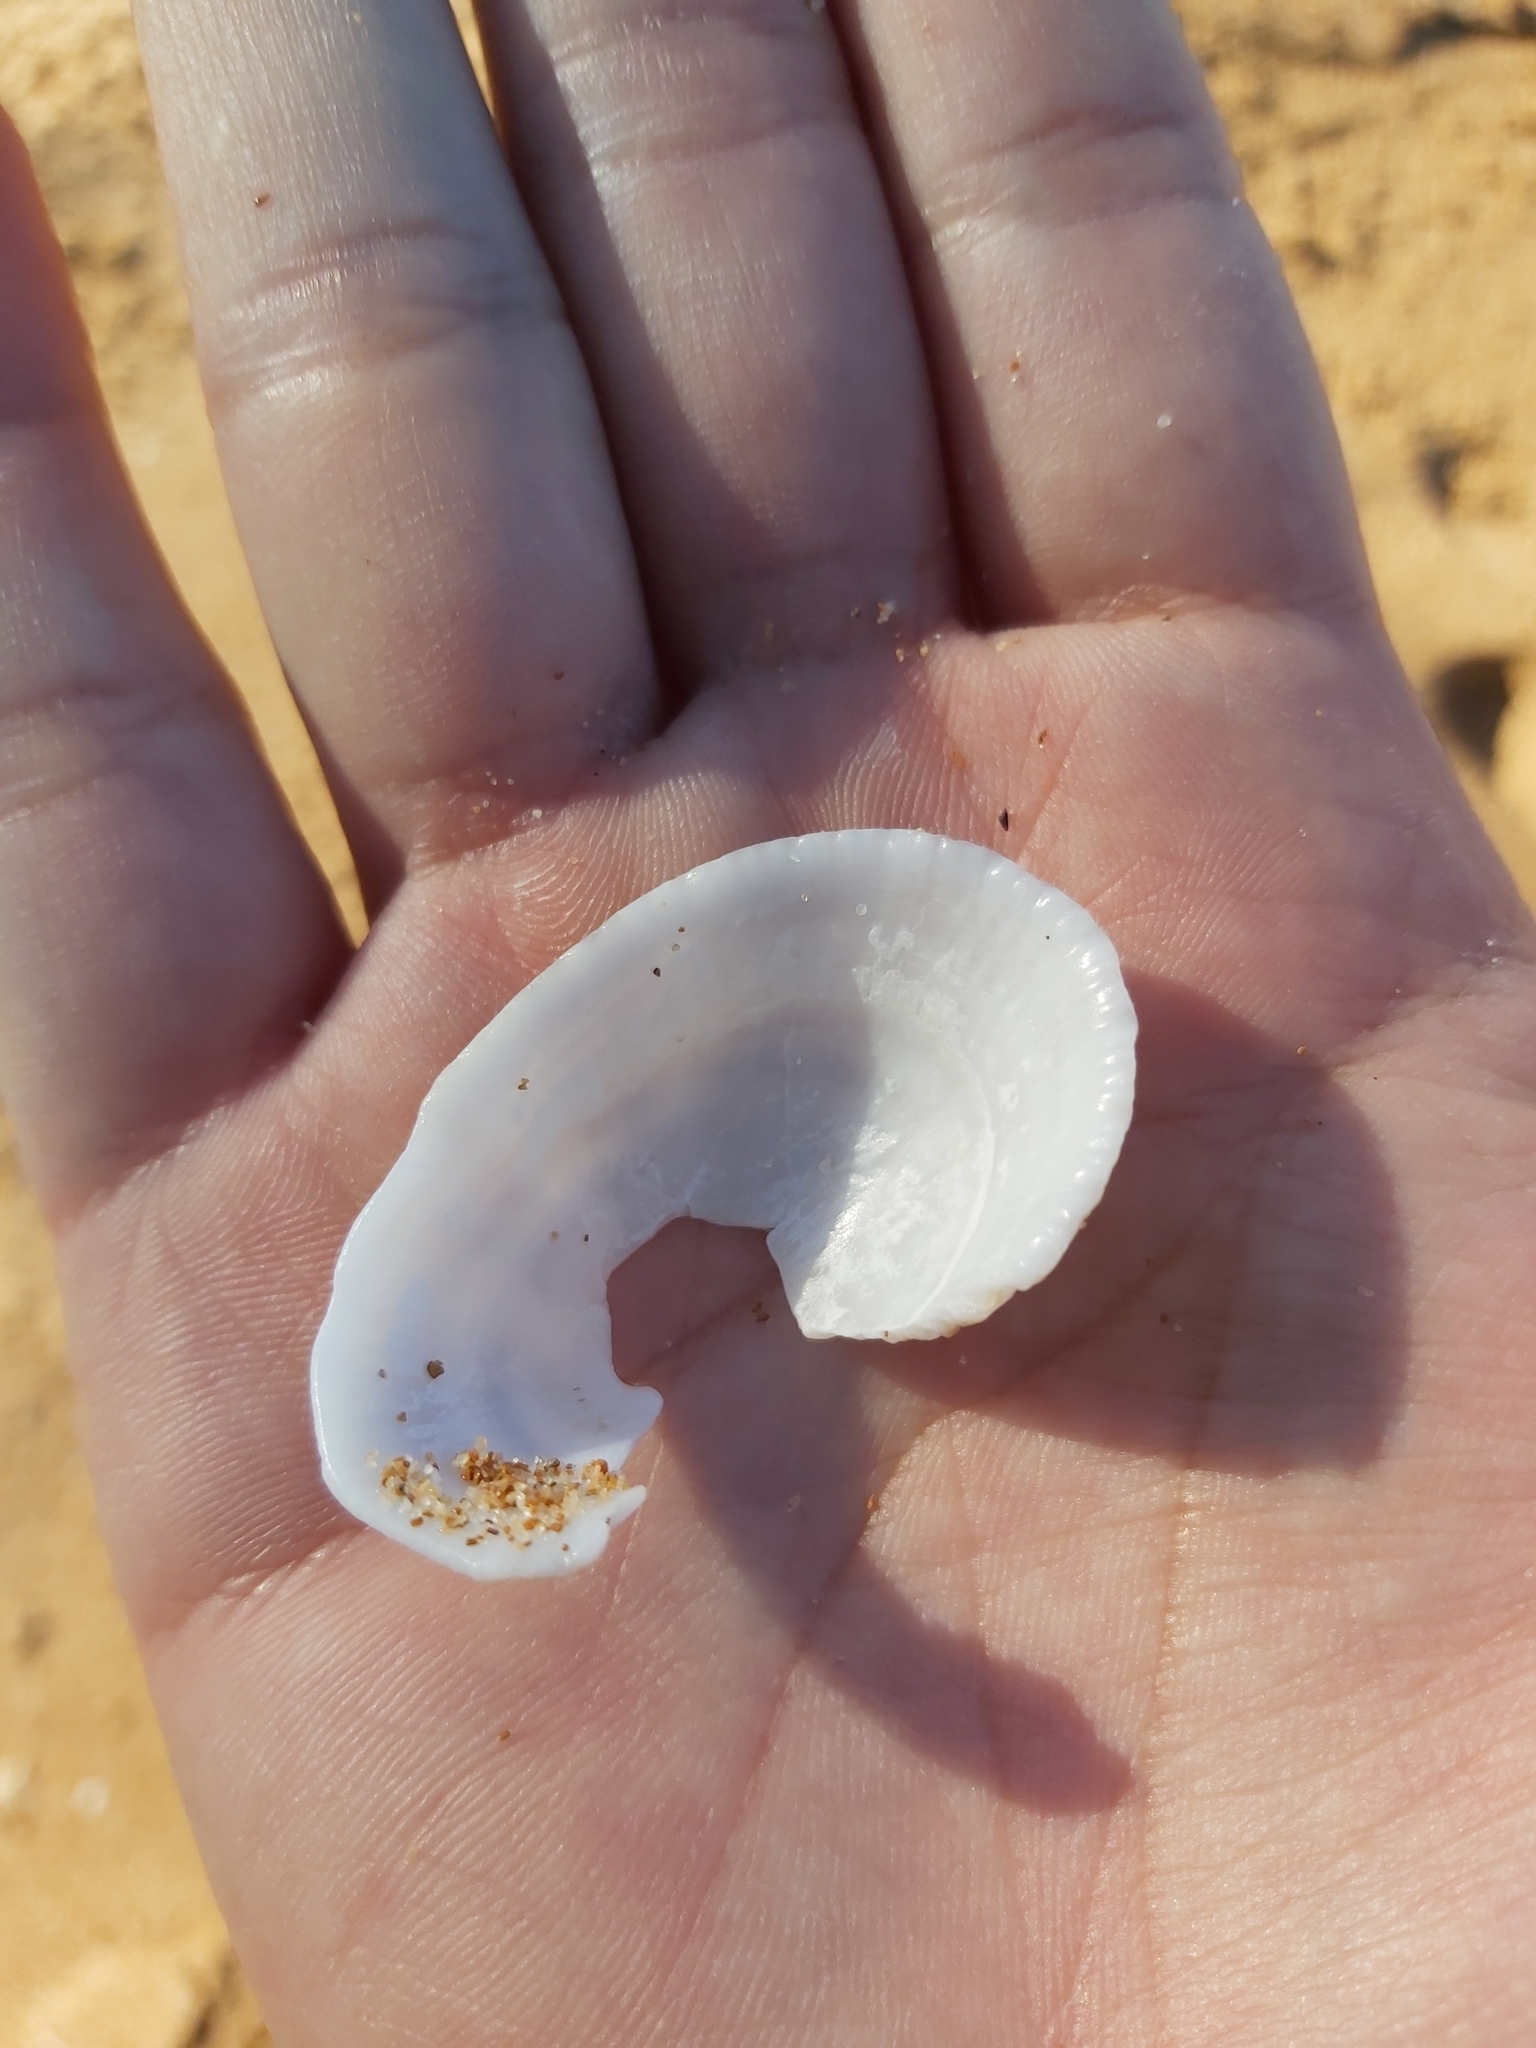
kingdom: Animalia
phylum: Mollusca
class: Gastropoda
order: Lepetellida
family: Fissurellidae
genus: Diodora
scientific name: Diodora lineata
